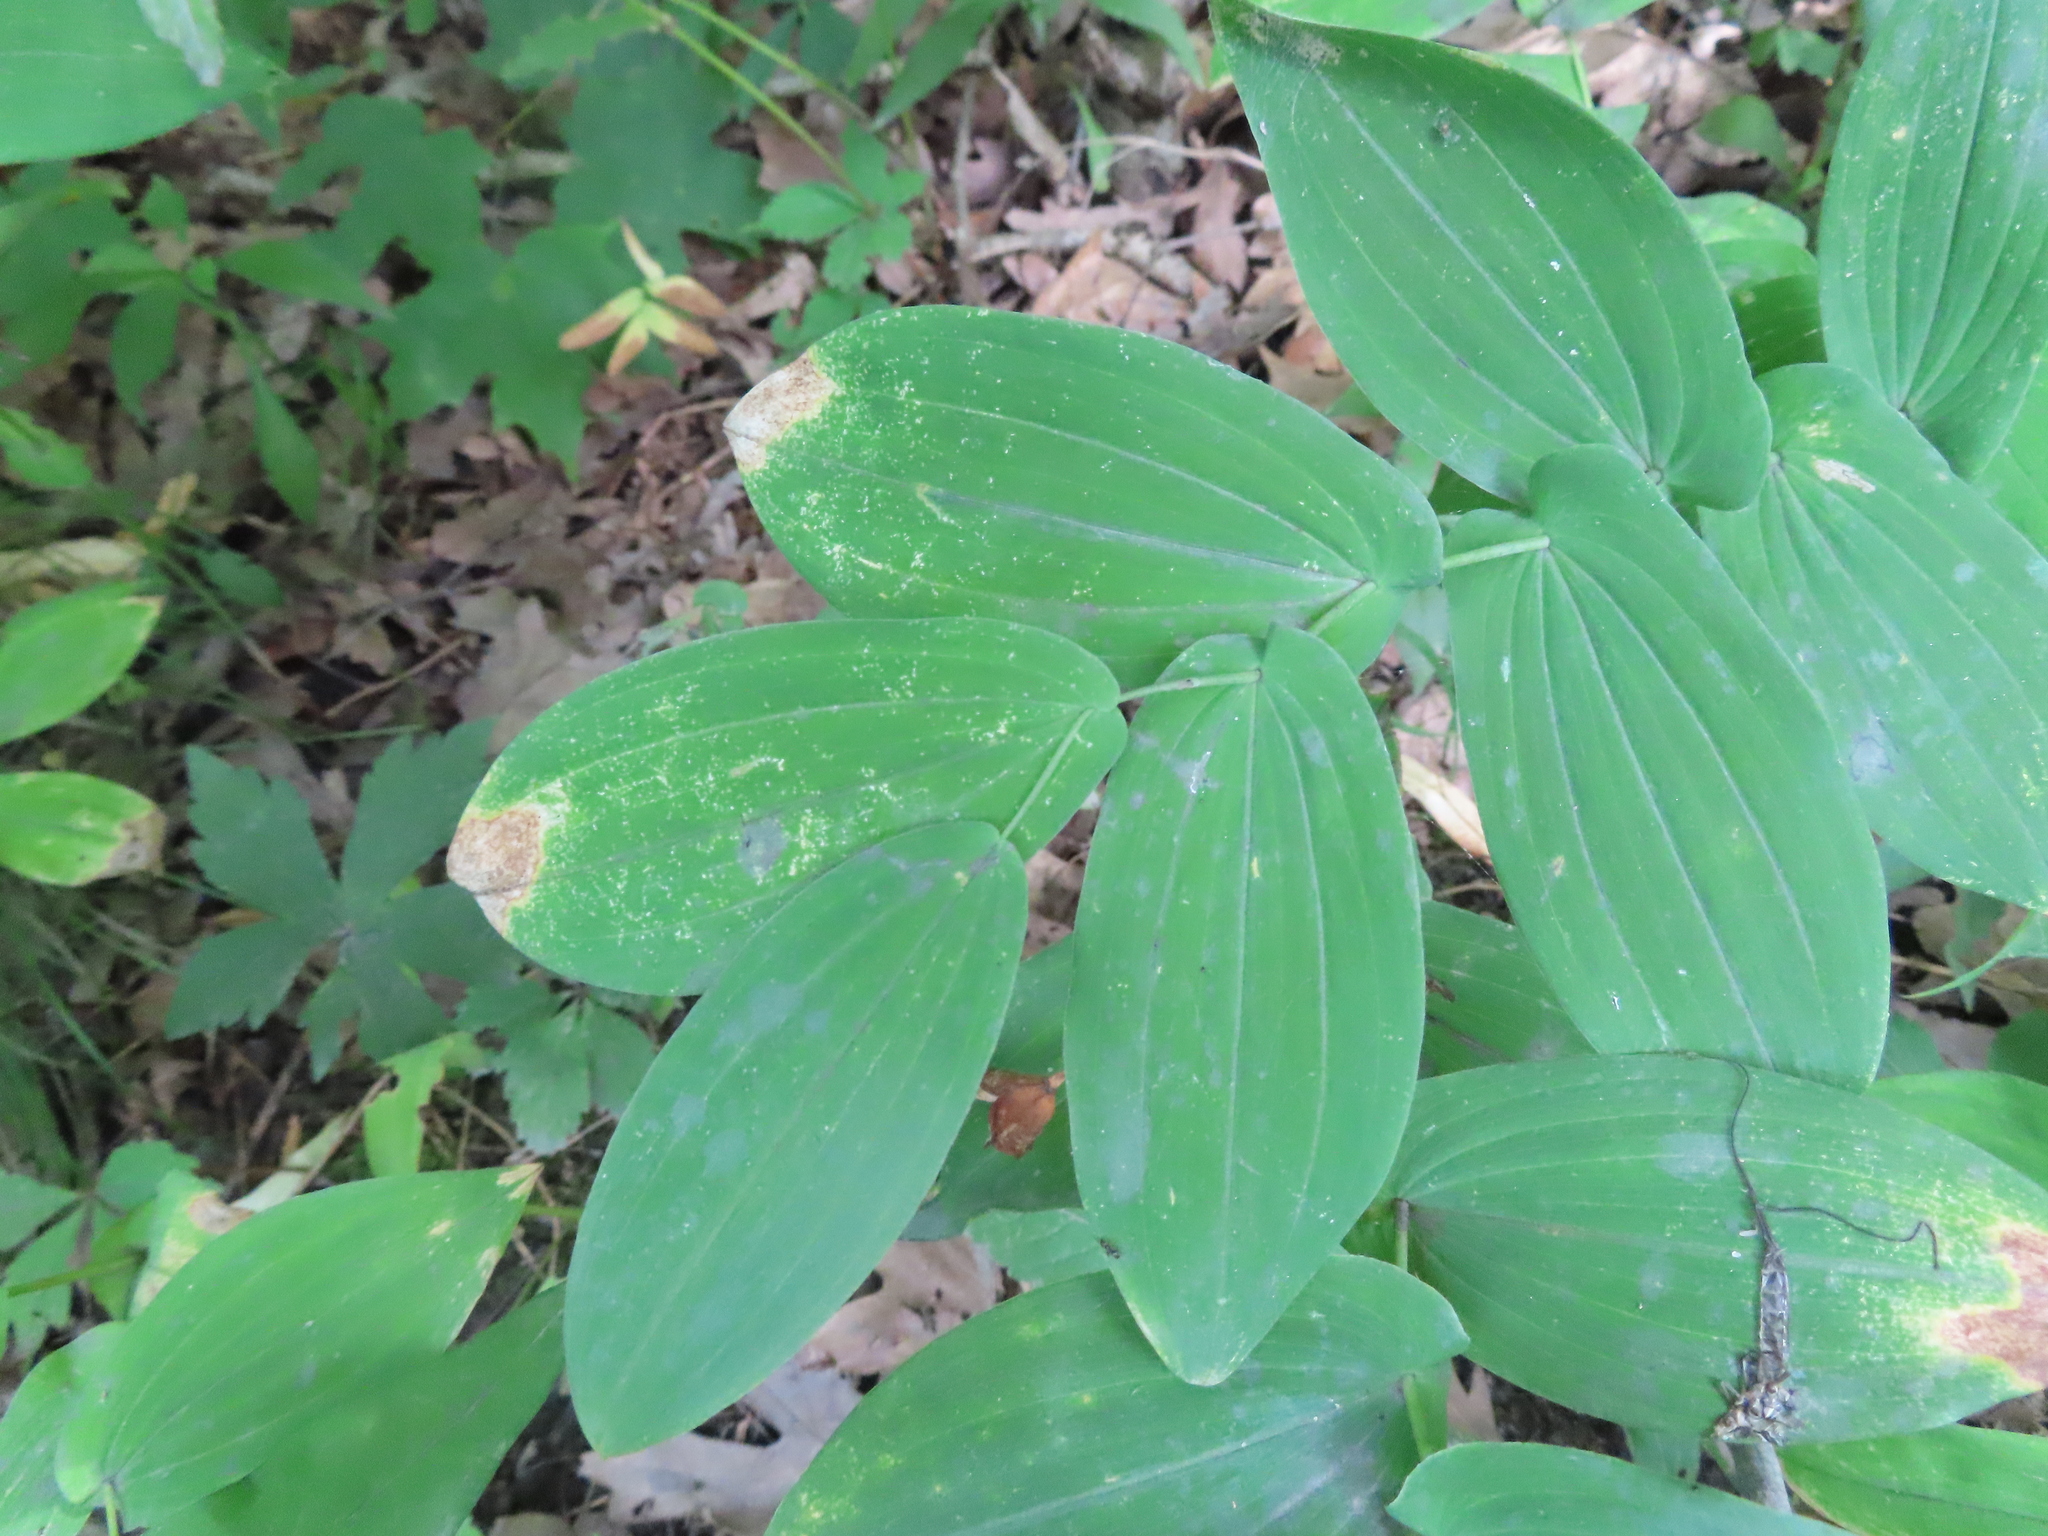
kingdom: Plantae
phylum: Tracheophyta
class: Liliopsida
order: Liliales
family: Colchicaceae
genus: Uvularia
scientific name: Uvularia grandiflora
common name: Bellwort
